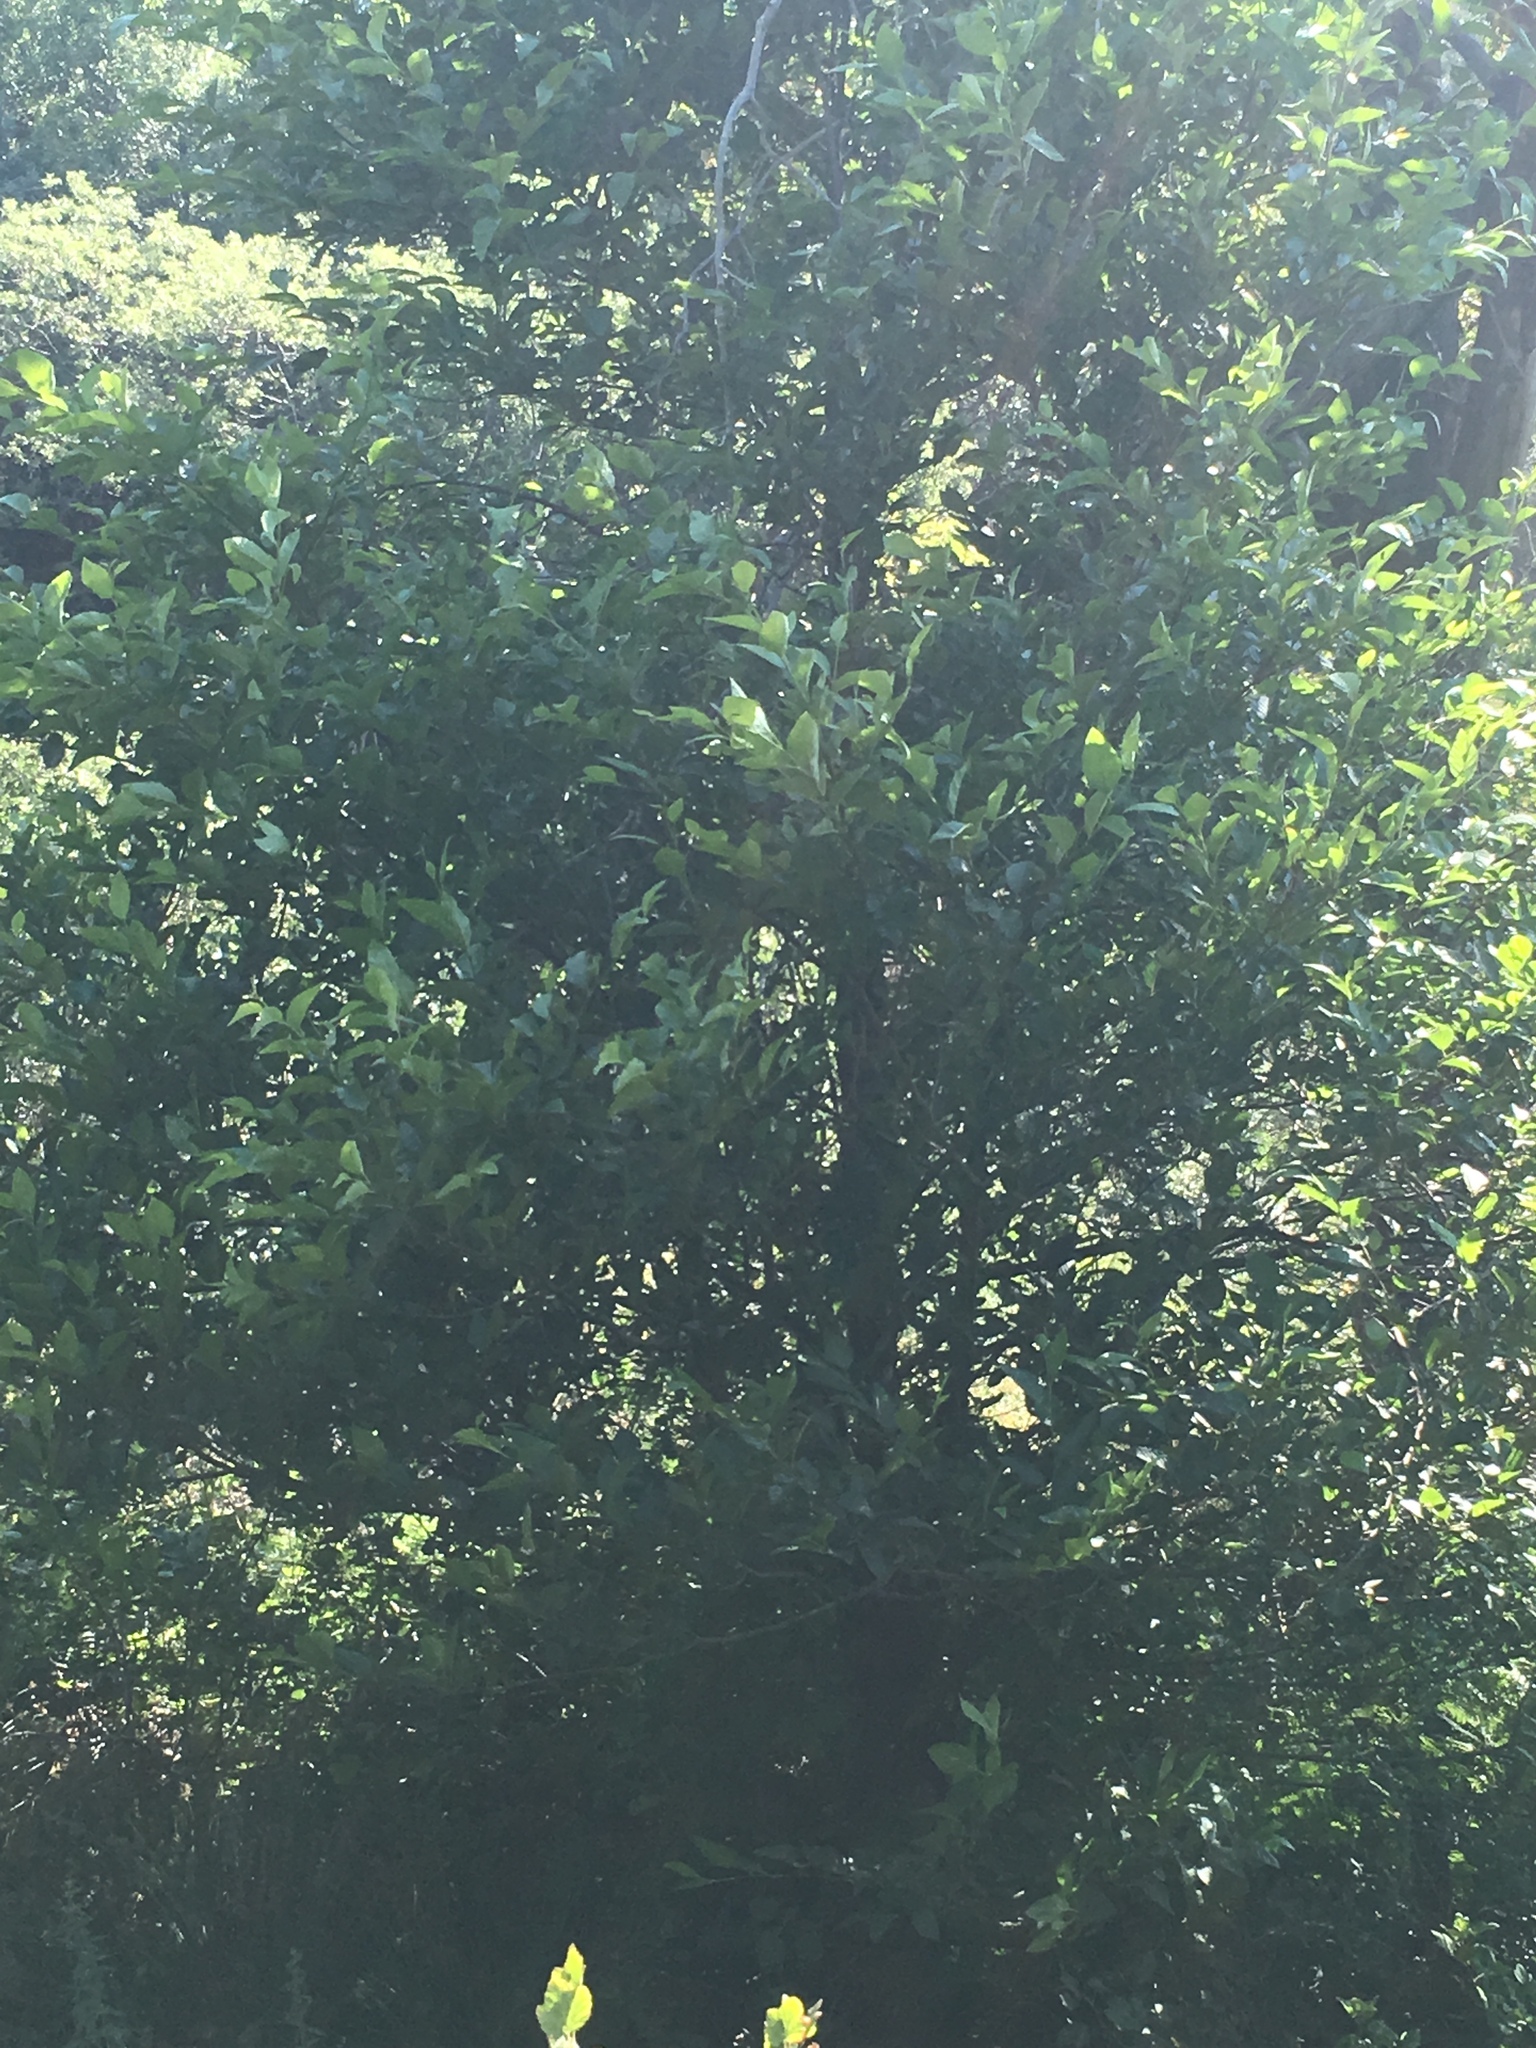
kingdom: Plantae
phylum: Tracheophyta
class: Magnoliopsida
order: Fagales
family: Betulaceae
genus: Alnus
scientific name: Alnus rhombifolia
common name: California alder
